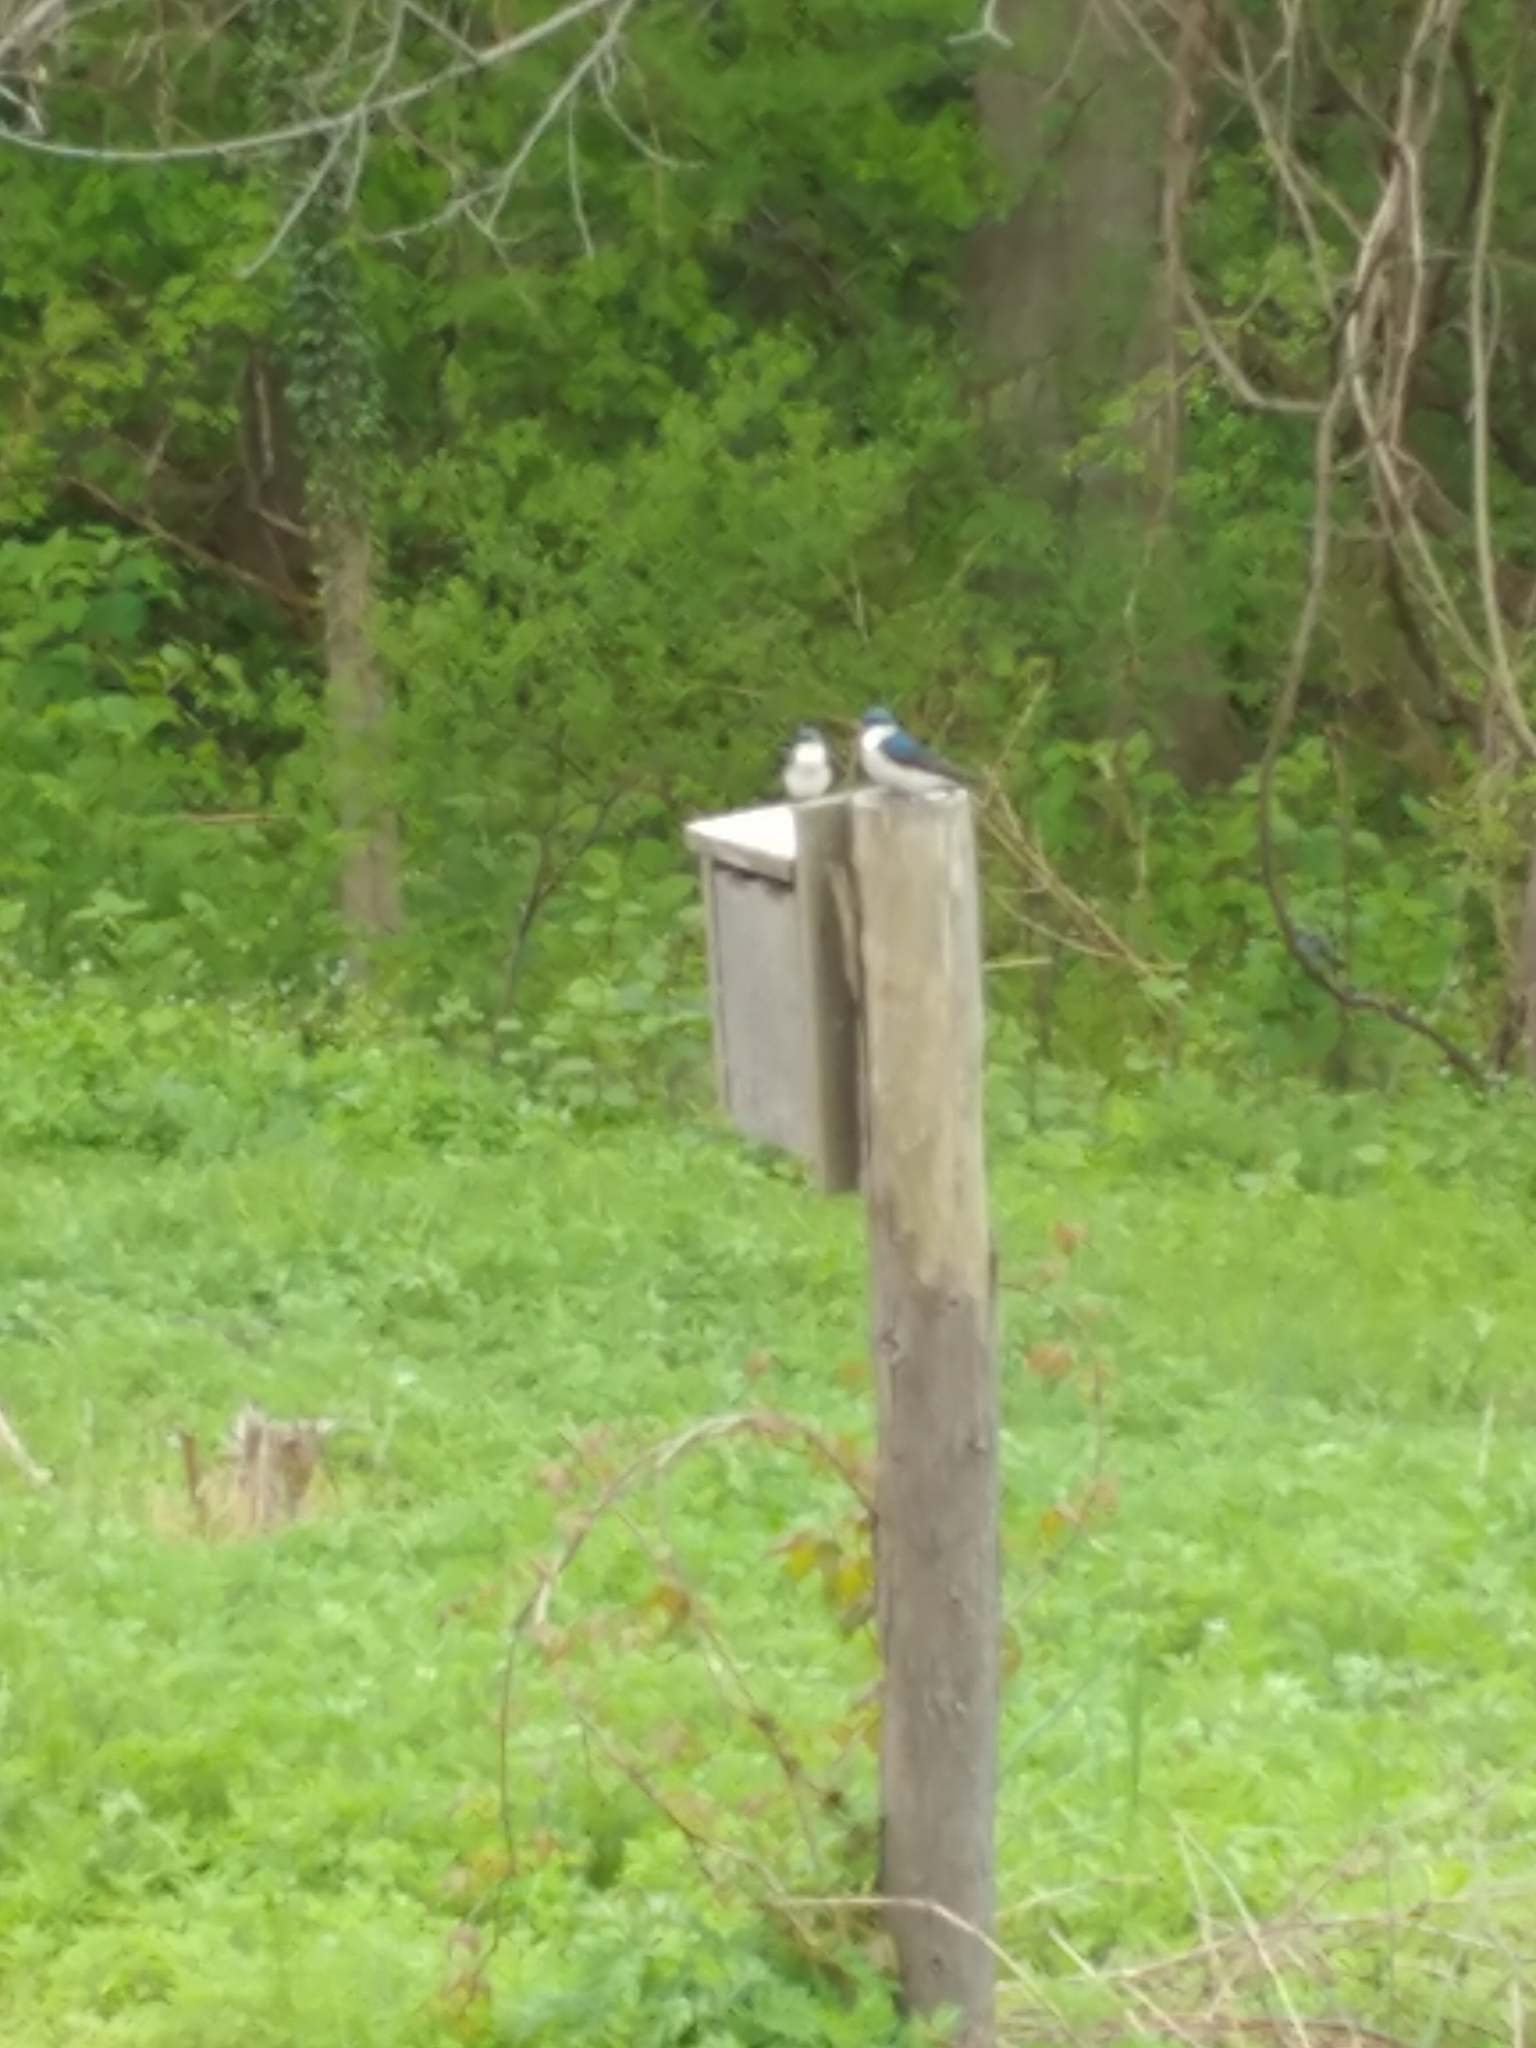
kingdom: Animalia
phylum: Chordata
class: Aves
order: Passeriformes
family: Hirundinidae
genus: Tachycineta
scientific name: Tachycineta bicolor
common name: Tree swallow
